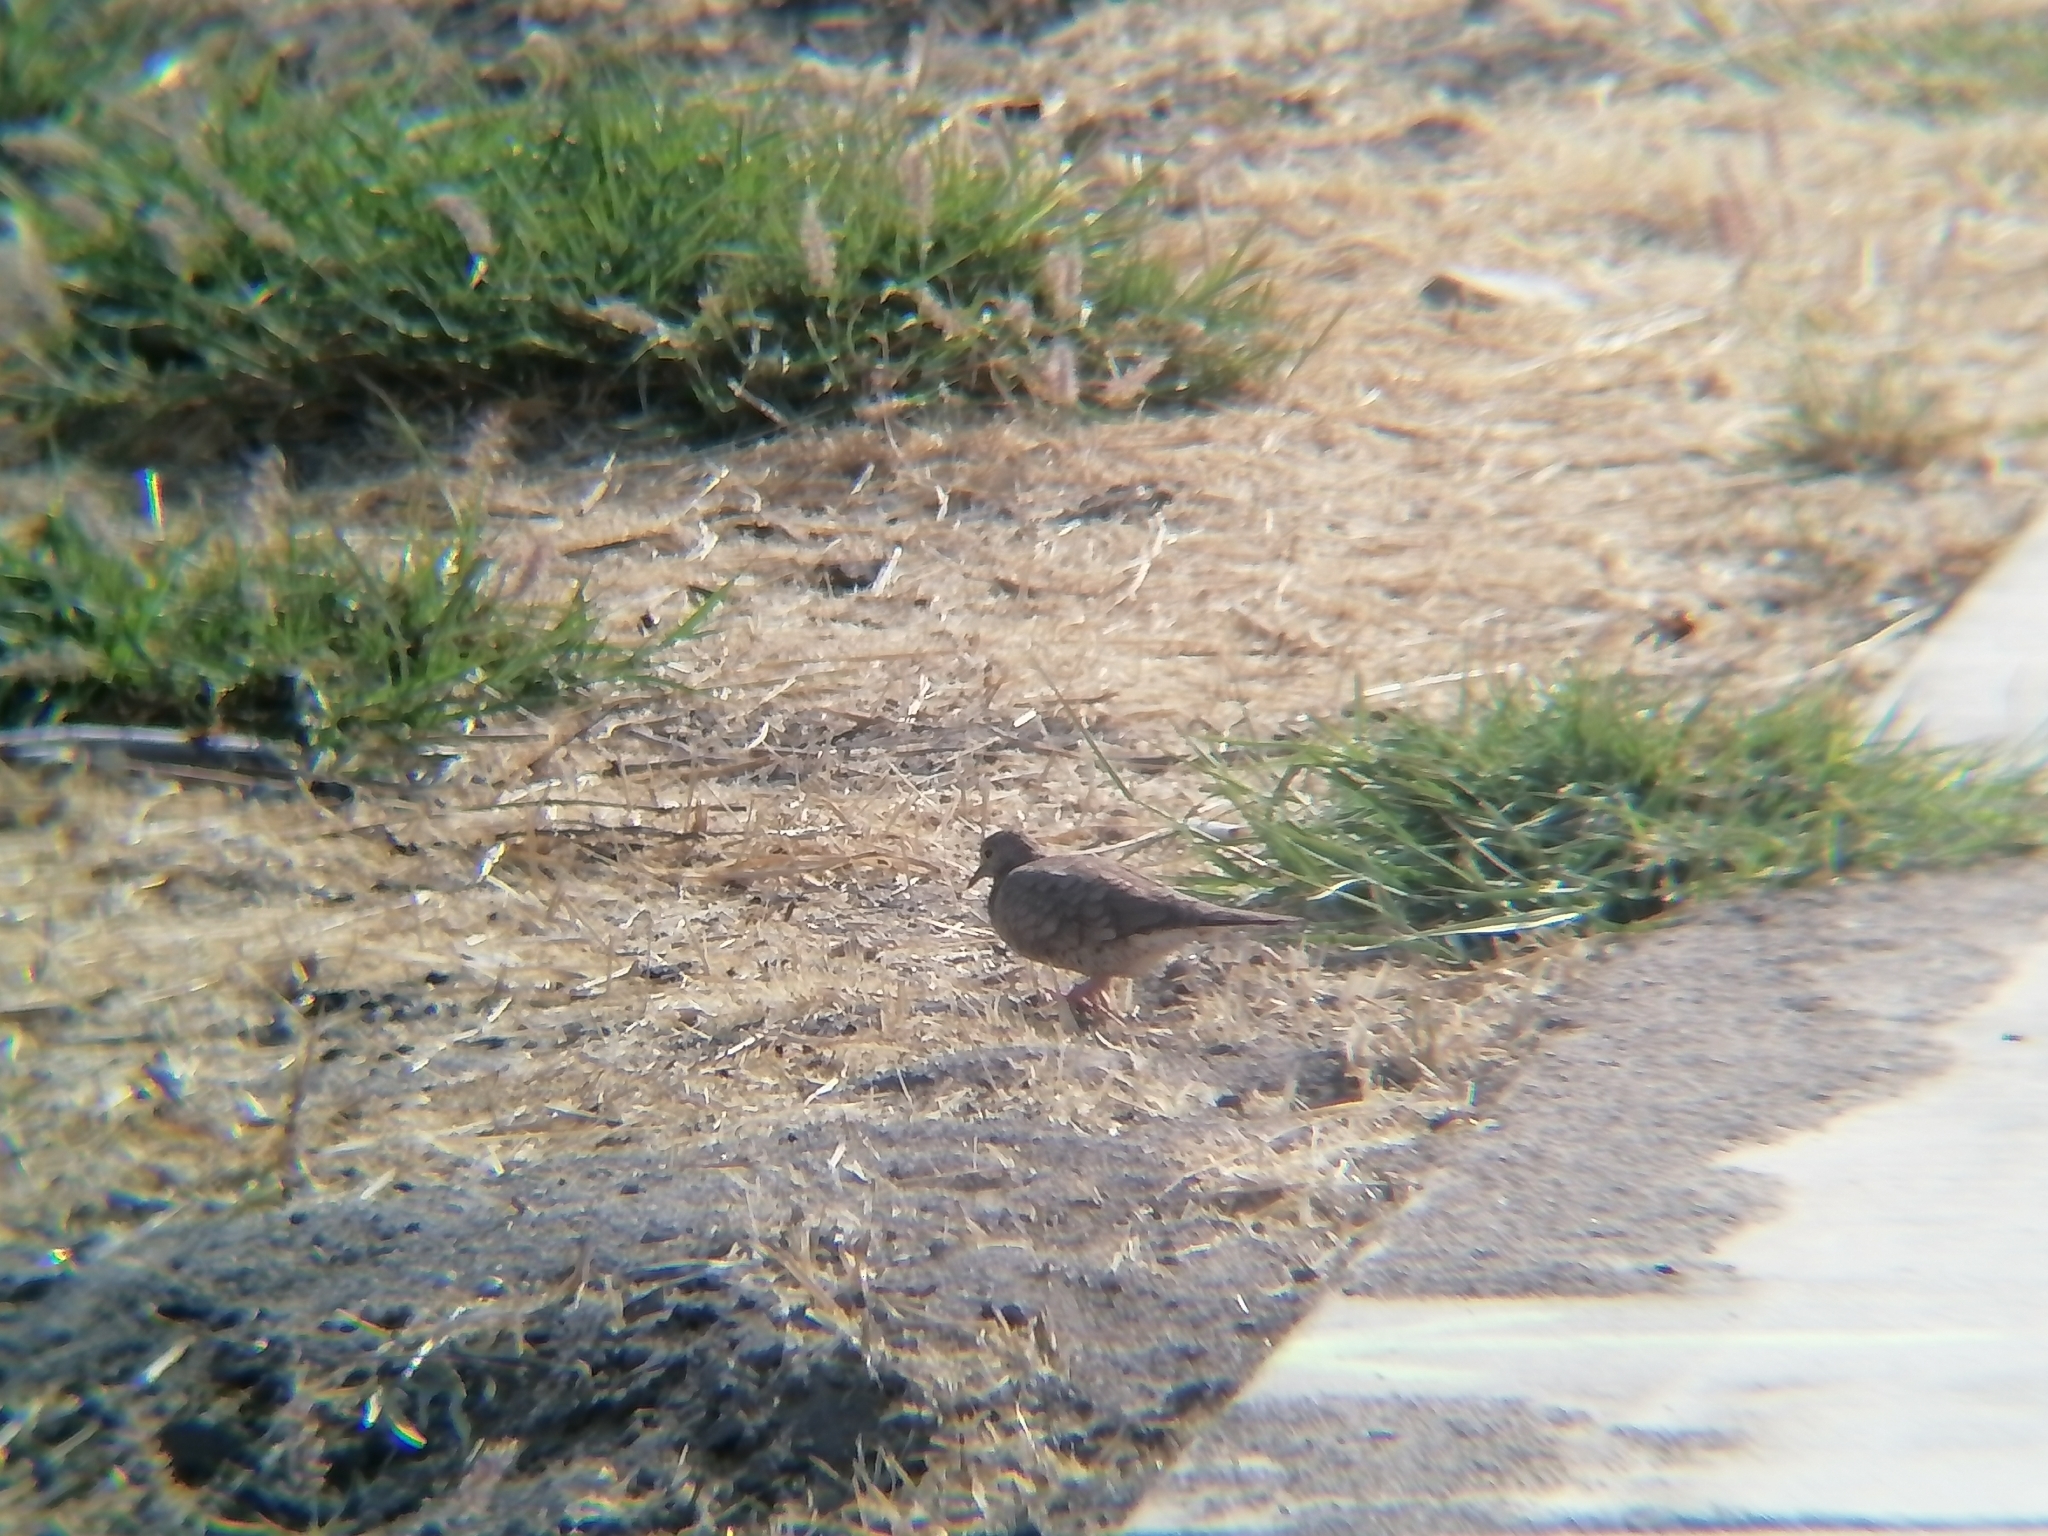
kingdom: Animalia
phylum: Chordata
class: Aves
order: Columbiformes
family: Columbidae
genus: Columbina
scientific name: Columbina inca
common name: Inca dove
